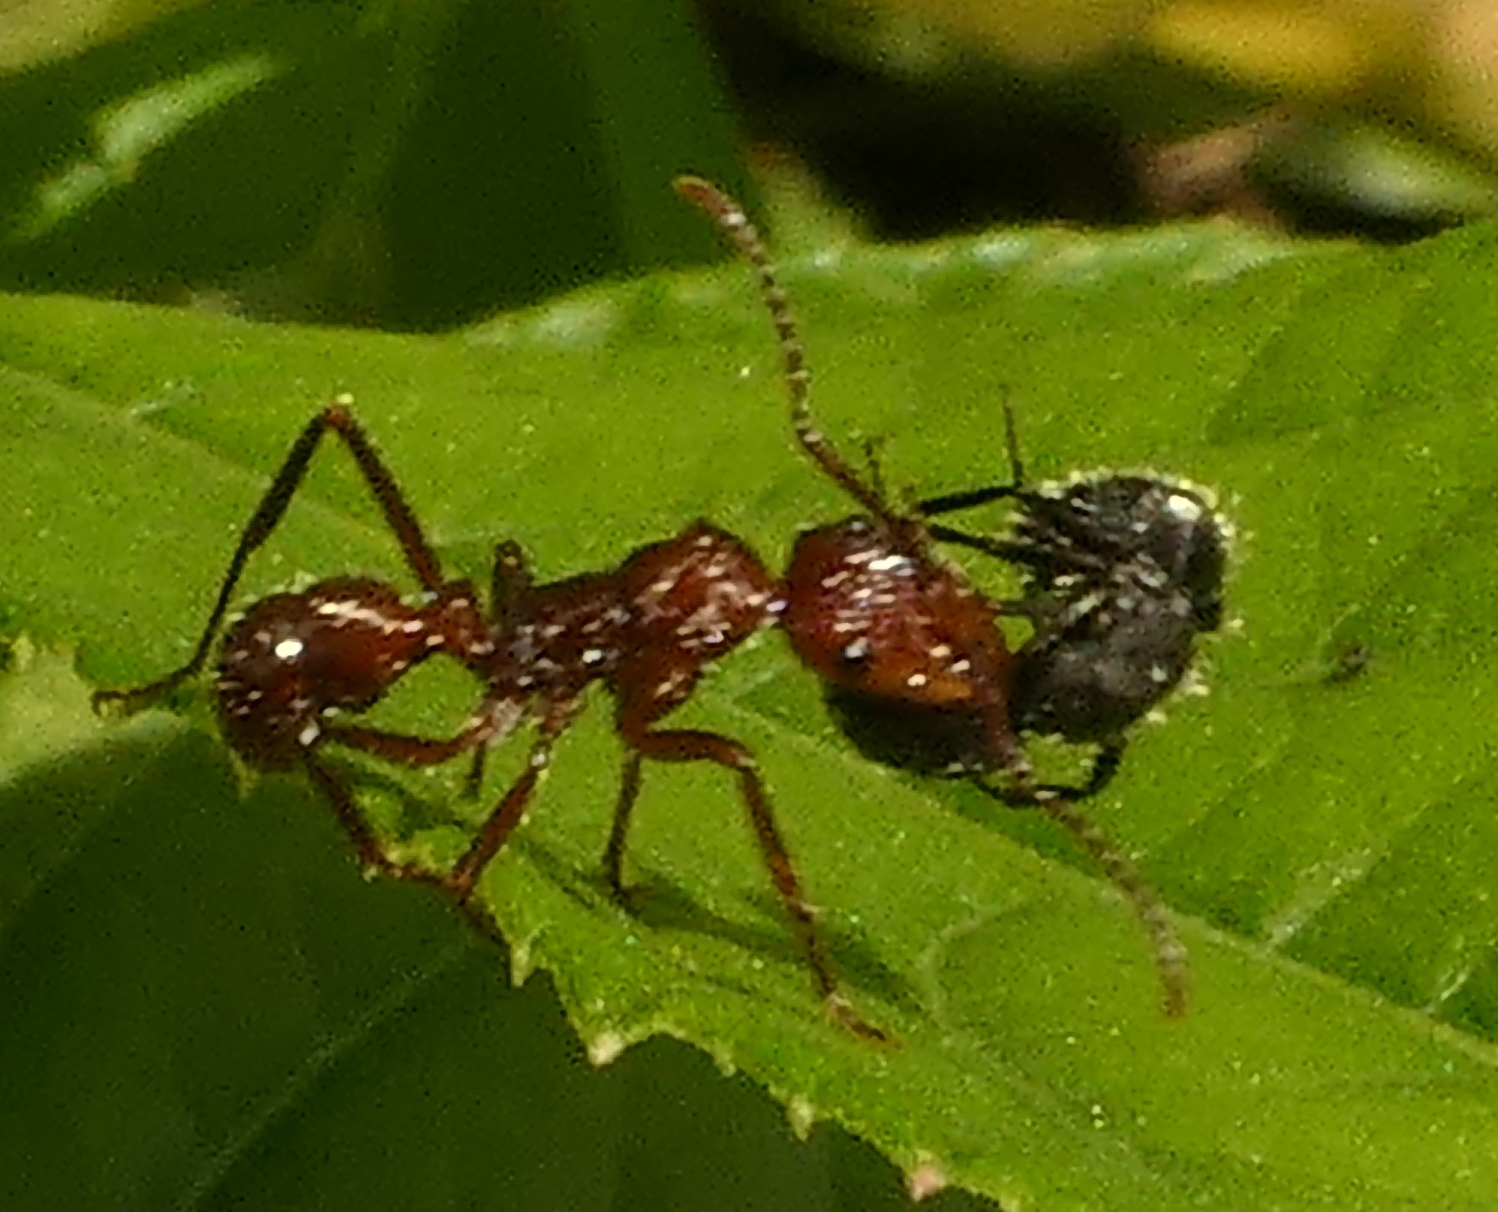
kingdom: Animalia
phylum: Arthropoda
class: Insecta
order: Hymenoptera
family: Formicidae
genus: Ectatomma
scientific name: Ectatomma tuberculatum
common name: Ant
